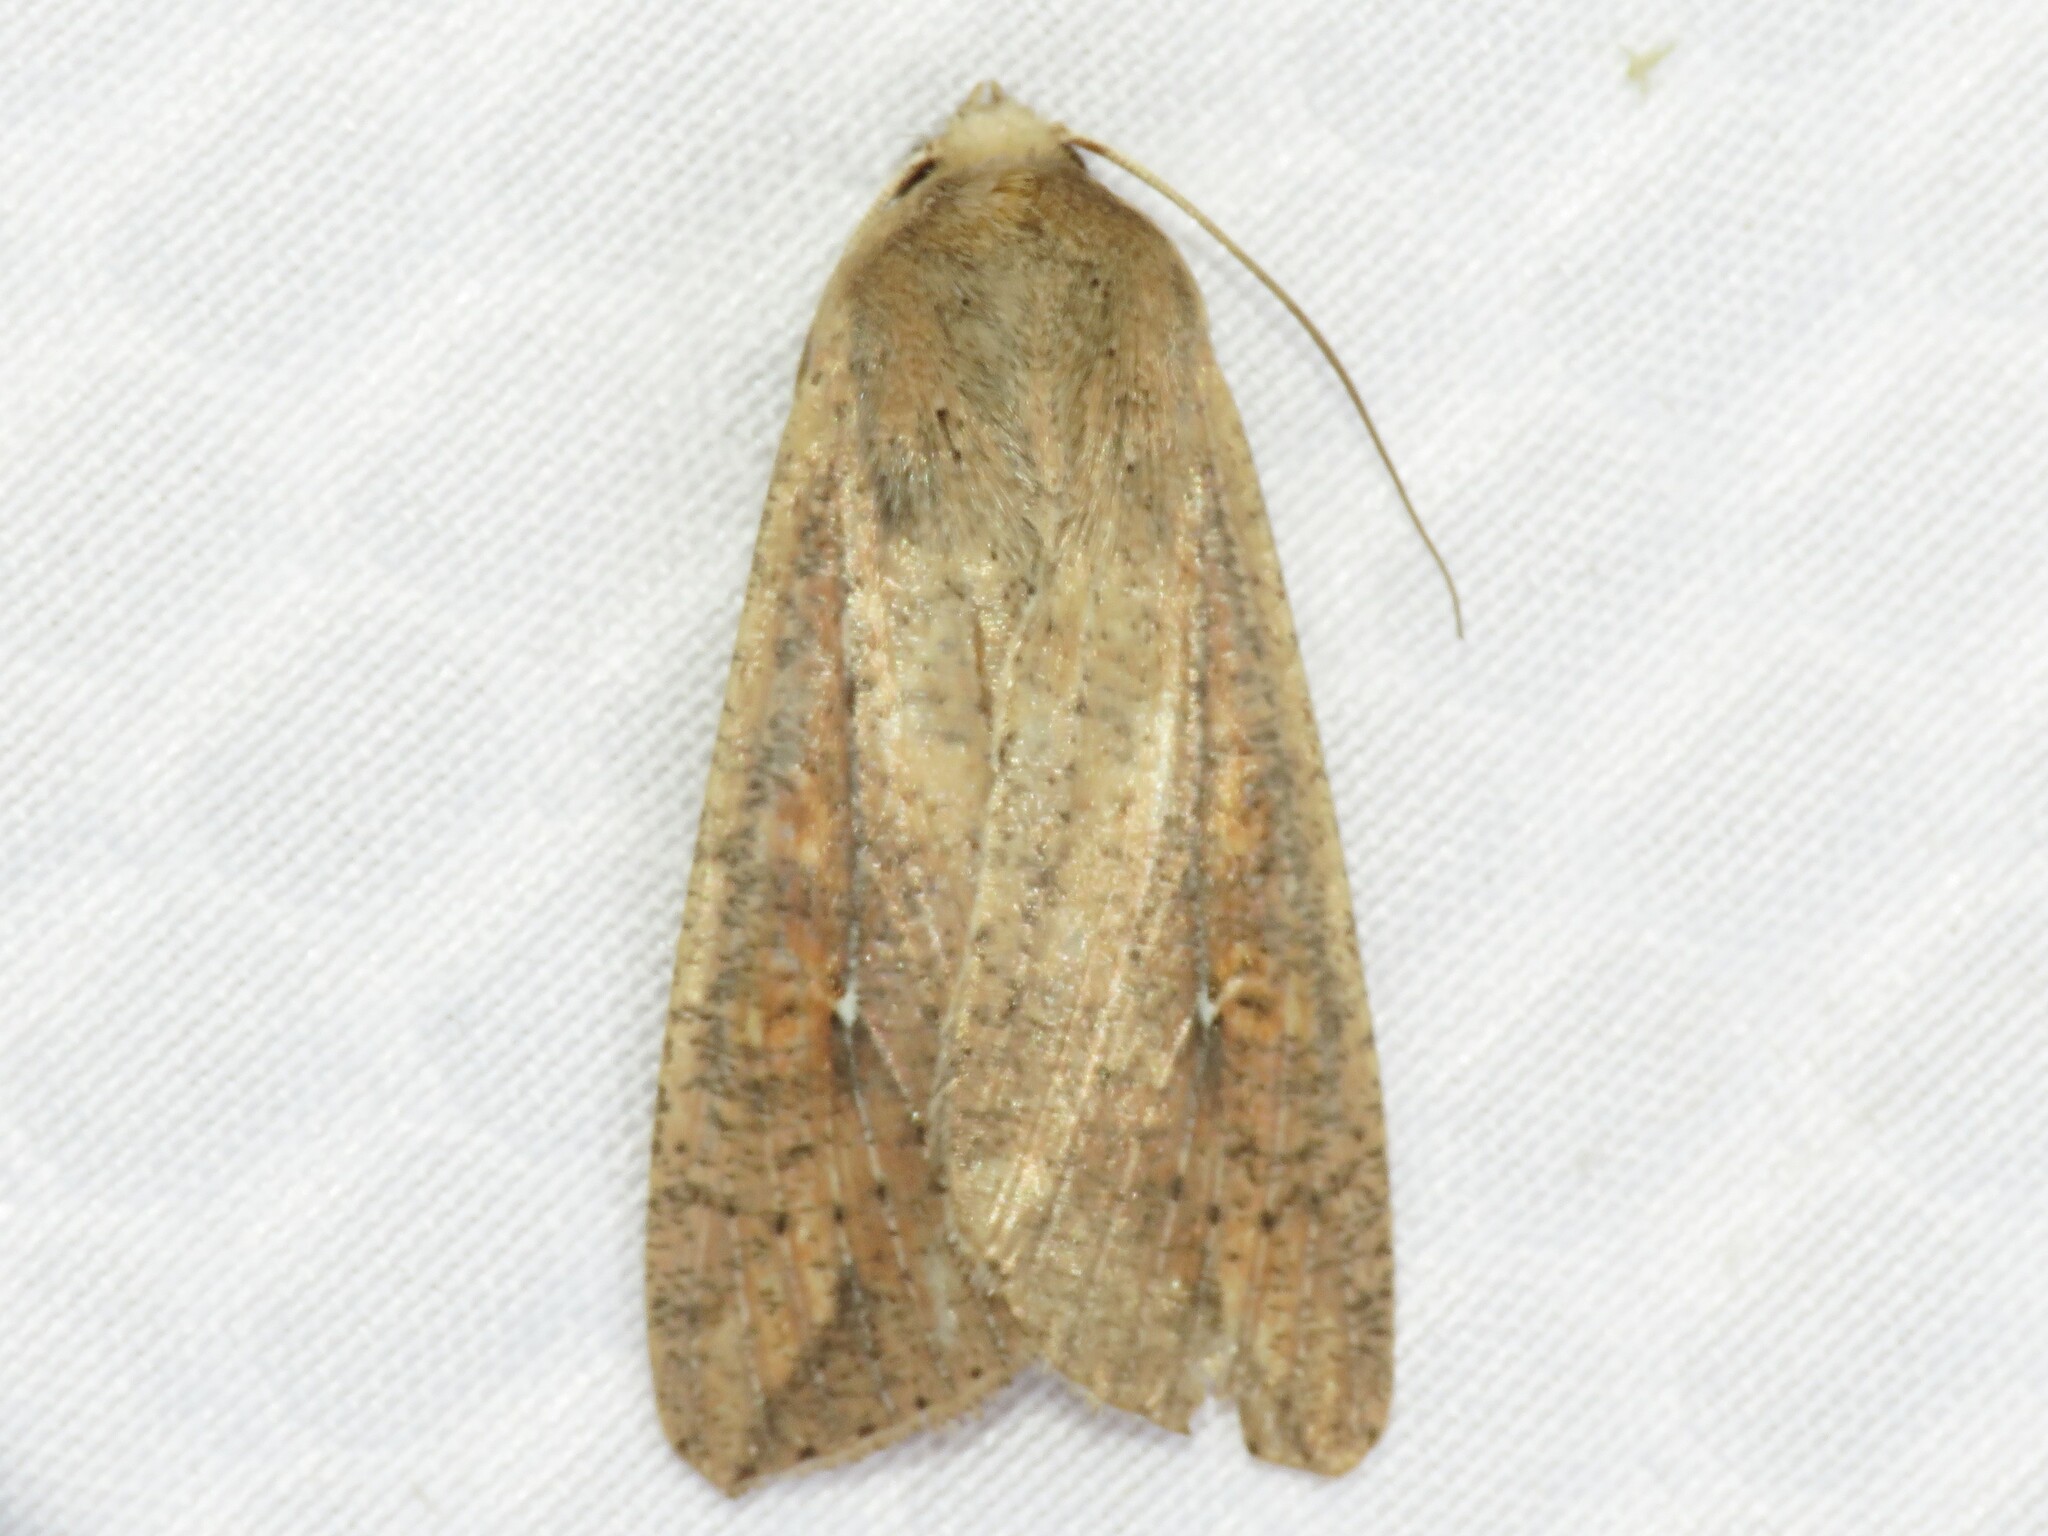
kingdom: Animalia
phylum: Arthropoda
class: Insecta
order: Lepidoptera
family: Noctuidae
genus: Mythimna
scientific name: Mythimna unipuncta
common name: White-speck
